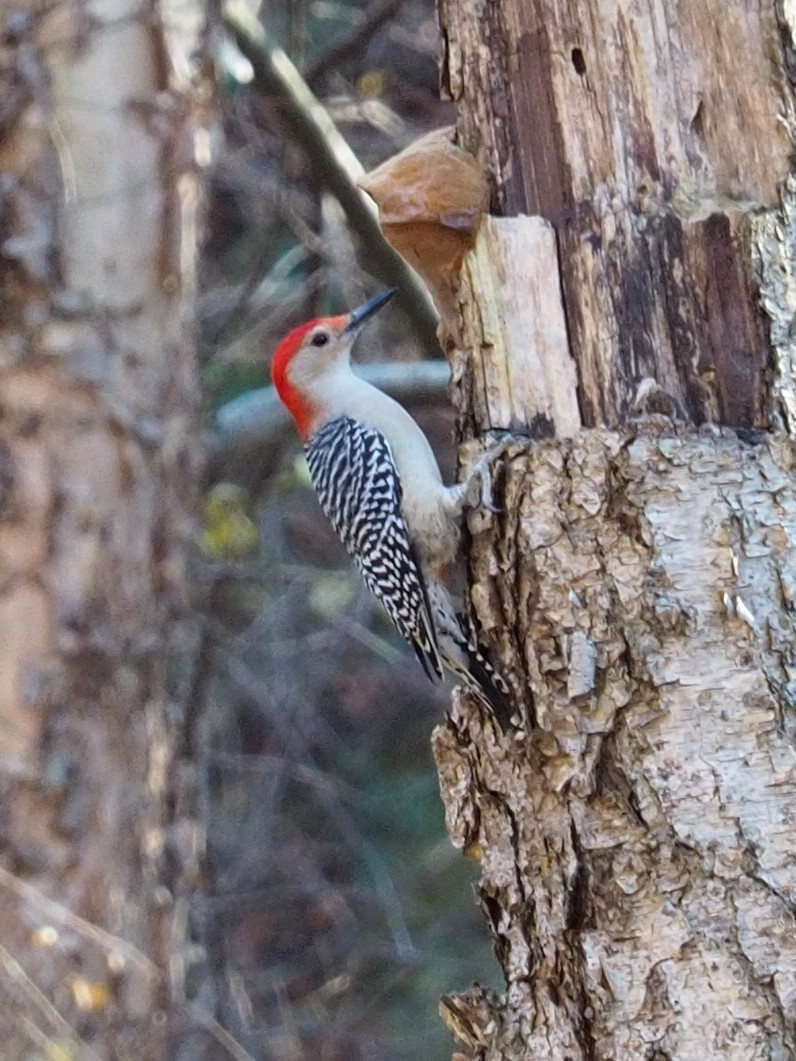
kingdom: Animalia
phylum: Chordata
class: Aves
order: Piciformes
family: Picidae
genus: Melanerpes
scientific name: Melanerpes carolinus
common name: Red-bellied woodpecker
